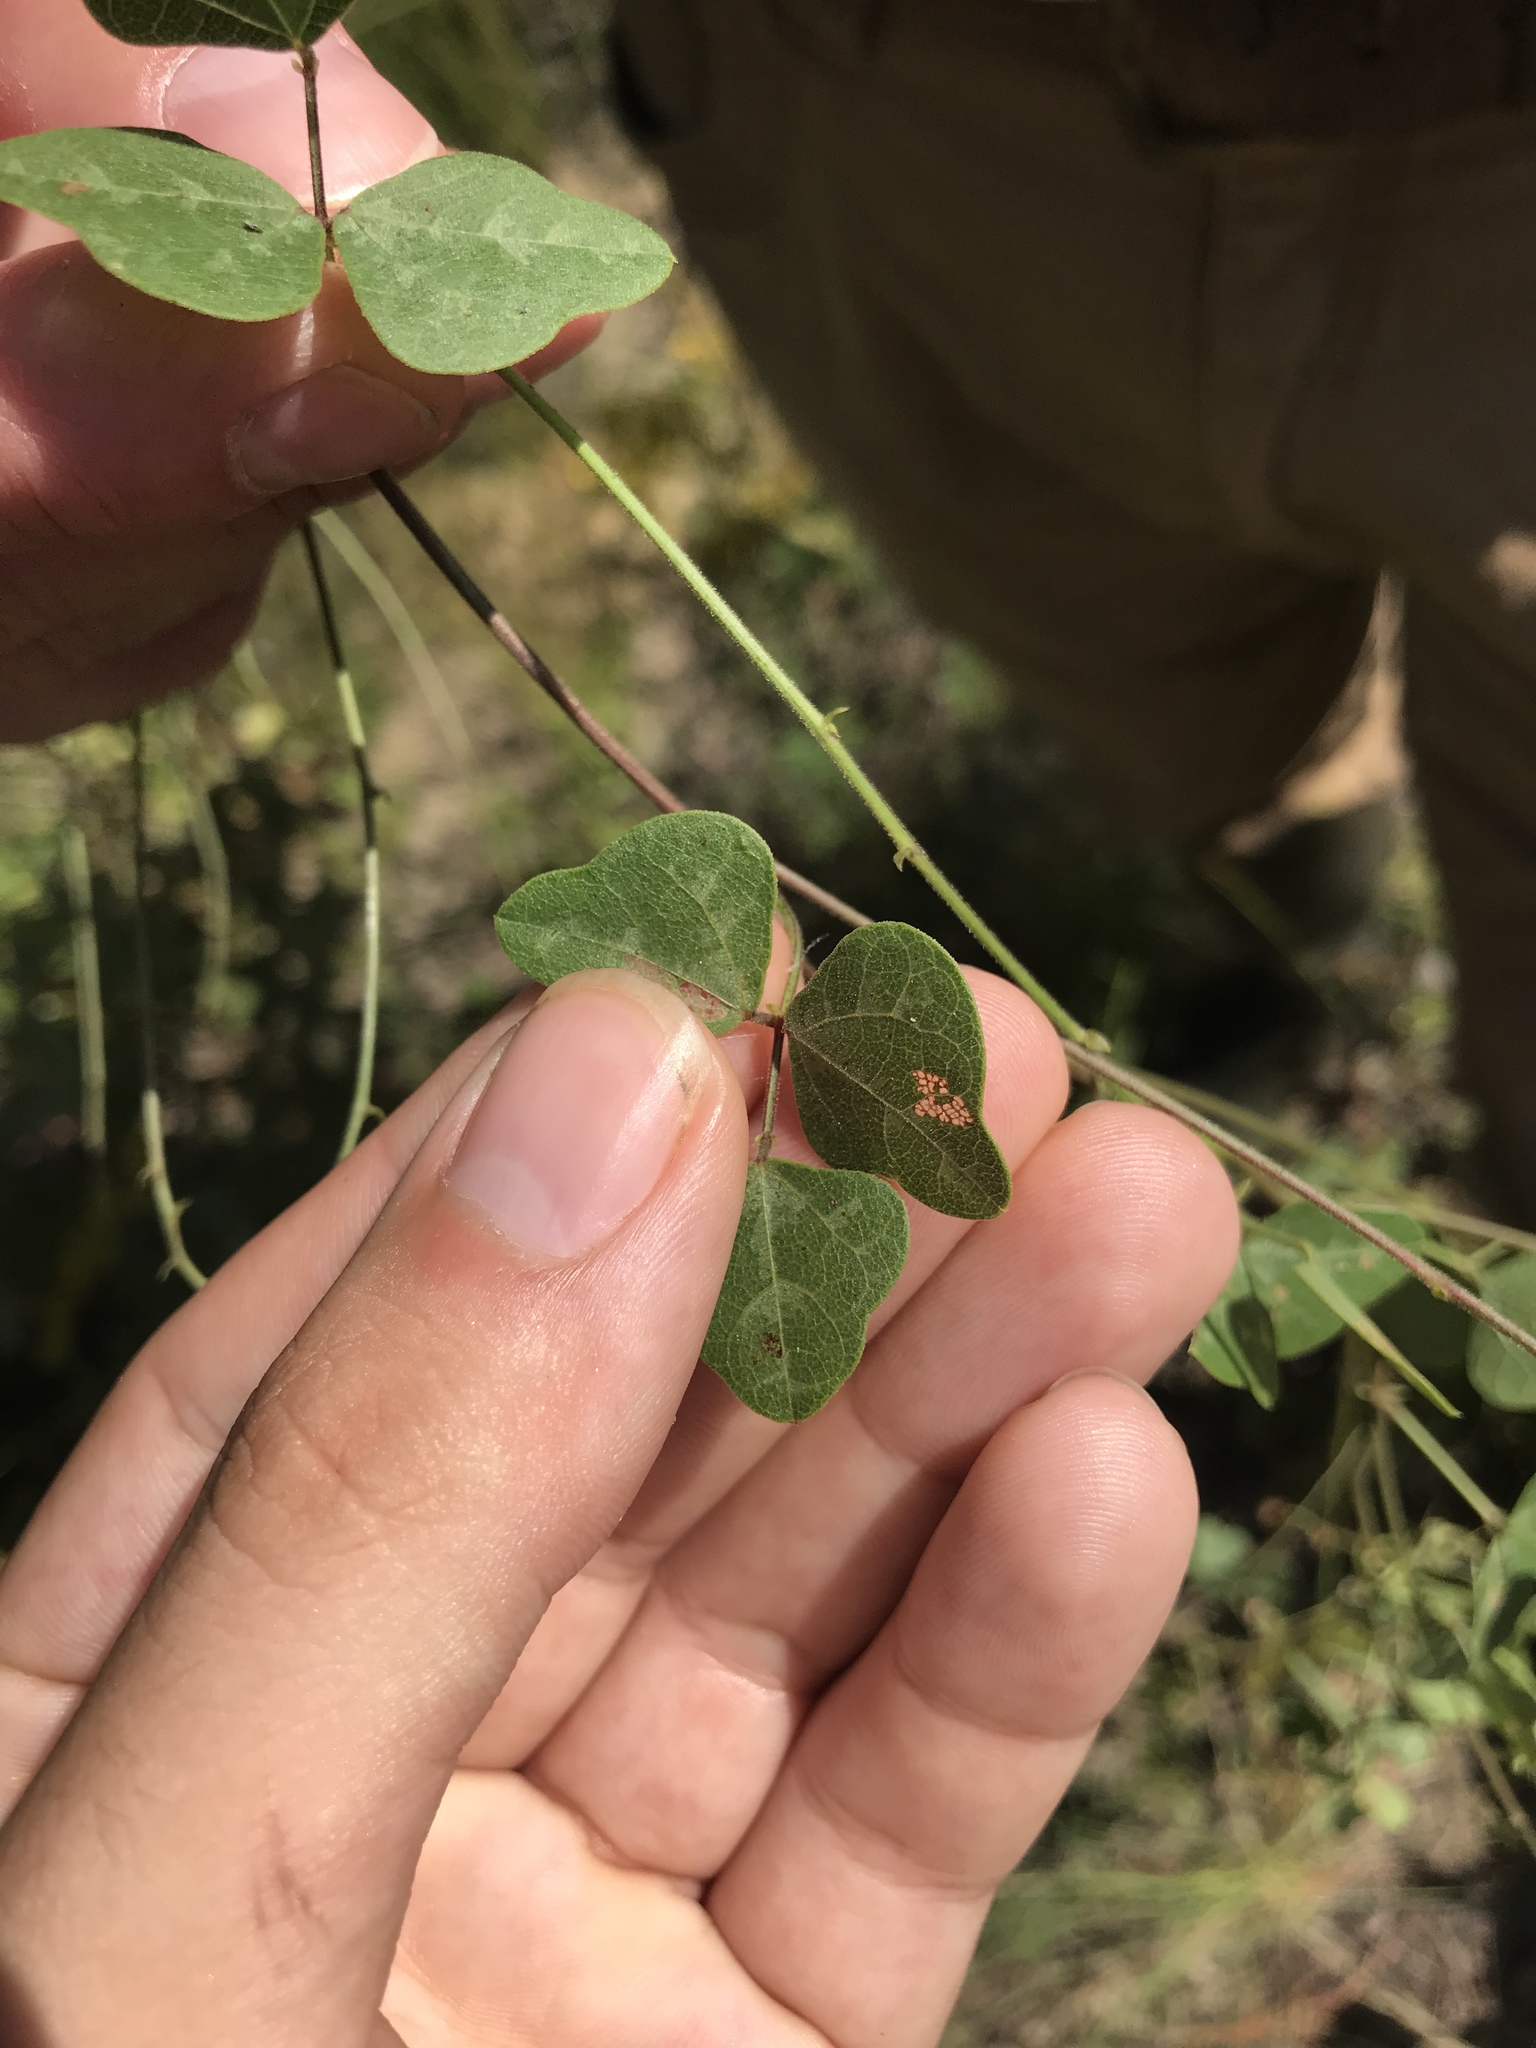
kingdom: Plantae
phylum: Tracheophyta
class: Magnoliopsida
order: Fabales
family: Fabaceae
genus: Phaseolus
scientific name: Phaseolus sinuatus
